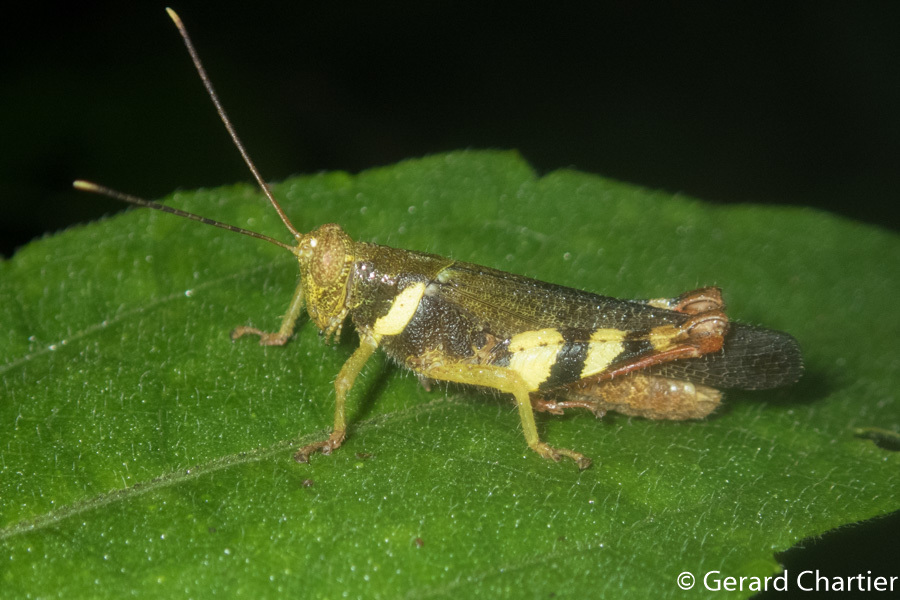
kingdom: Animalia
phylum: Arthropoda
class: Insecta
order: Orthoptera
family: Acrididae
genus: Apalacris
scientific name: Apalacris varicornis
